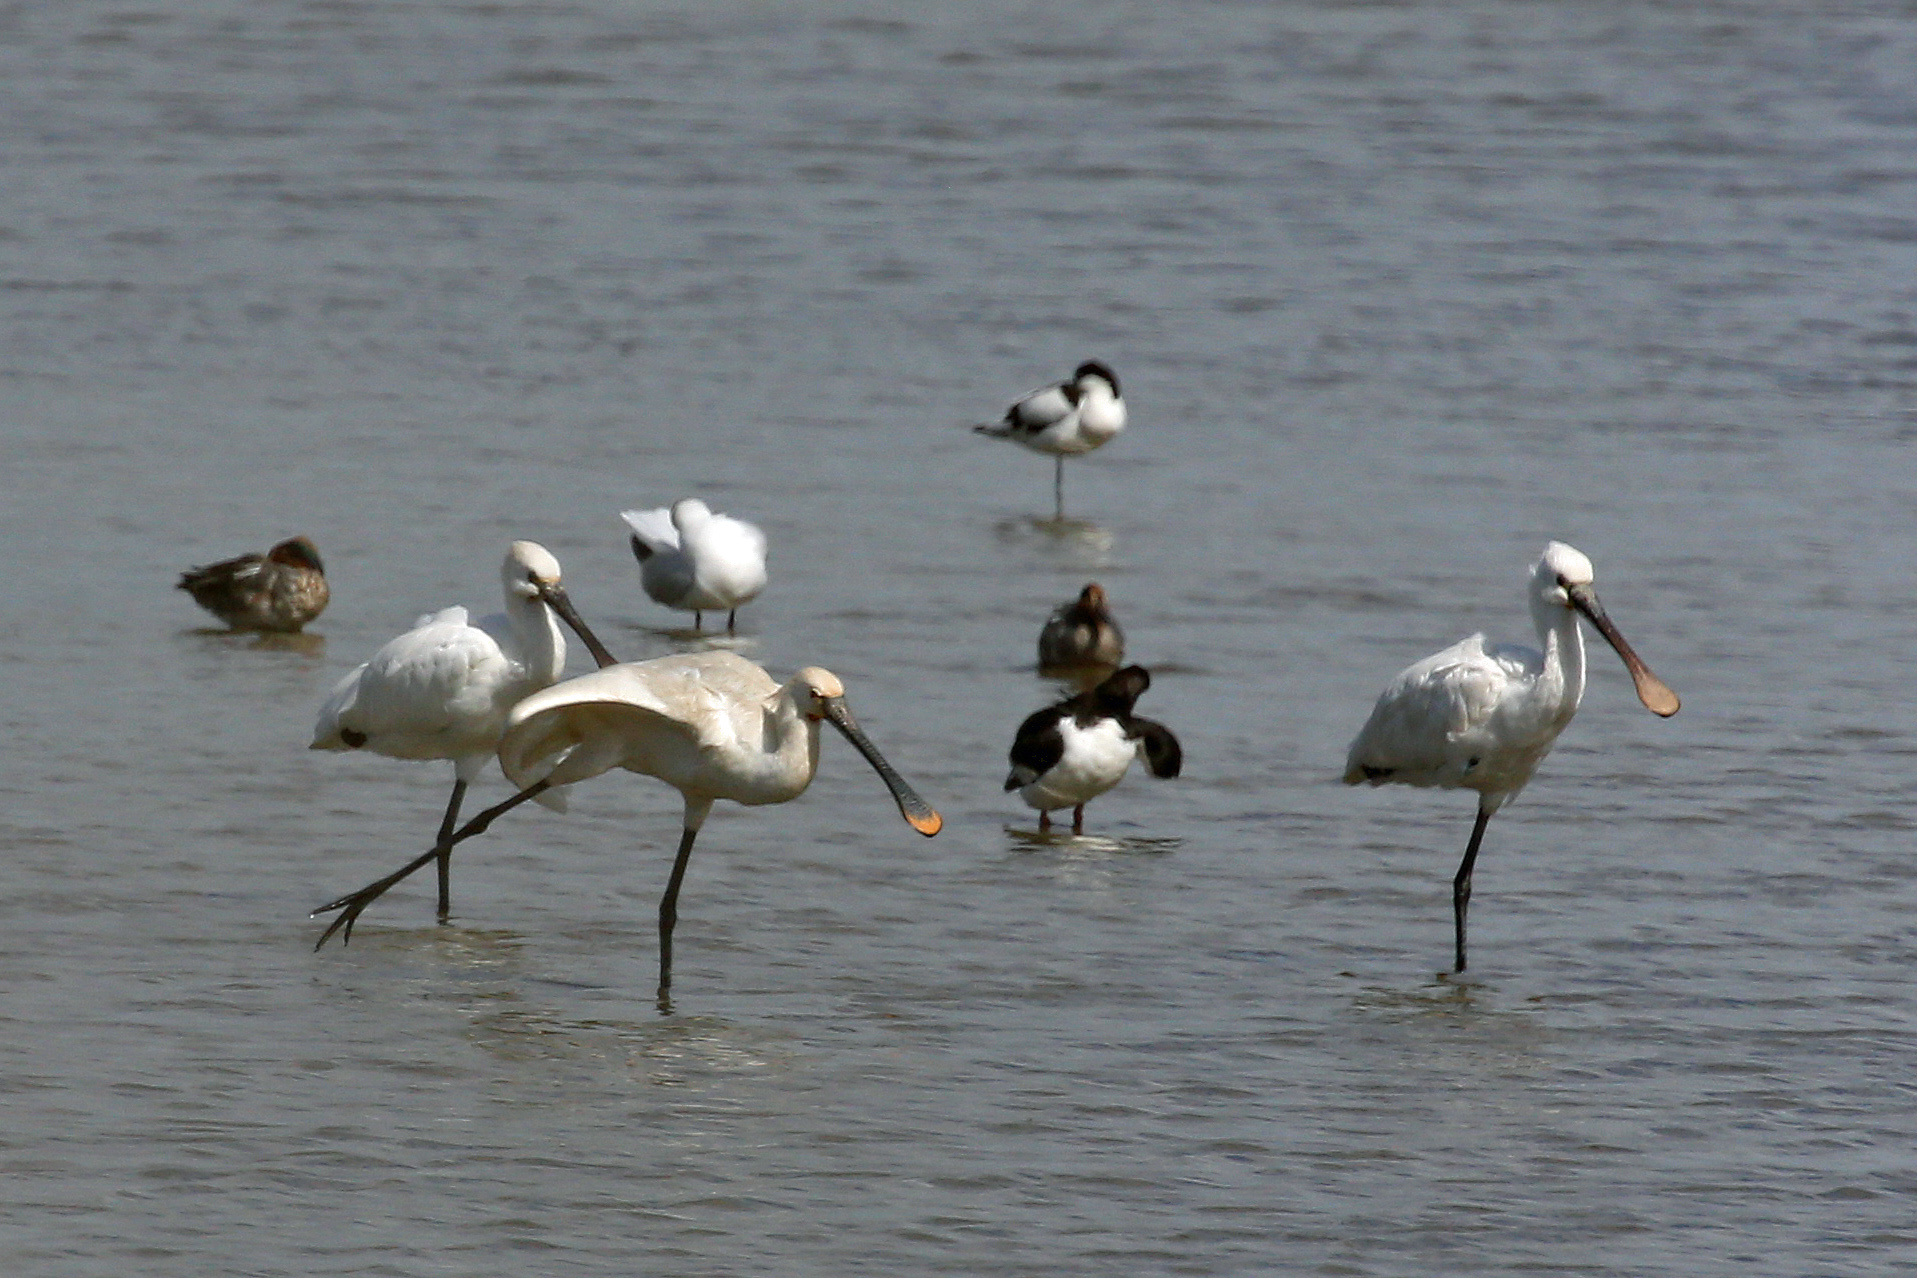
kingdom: Animalia
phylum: Chordata
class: Aves
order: Pelecaniformes
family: Threskiornithidae
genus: Platalea
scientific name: Platalea leucorodia
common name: Eurasian spoonbill
